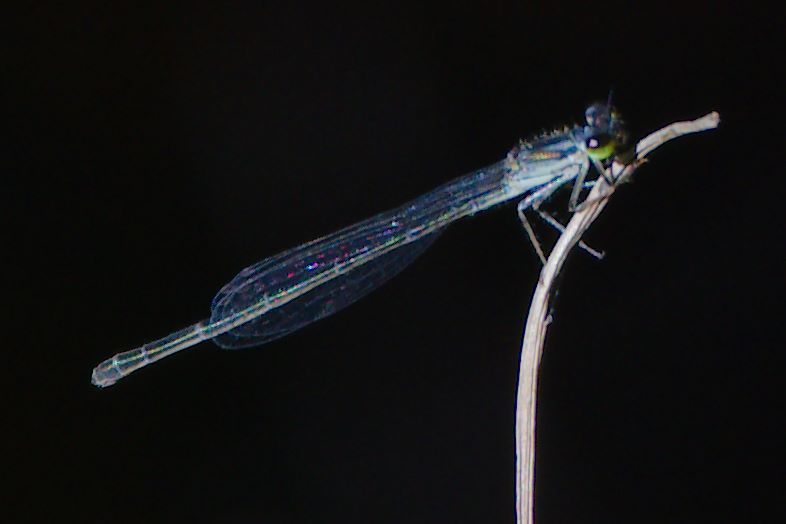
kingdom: Animalia
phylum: Arthropoda
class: Insecta
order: Odonata
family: Coenagrionidae
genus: Ischnura
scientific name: Ischnura posita
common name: Fragile forktail
